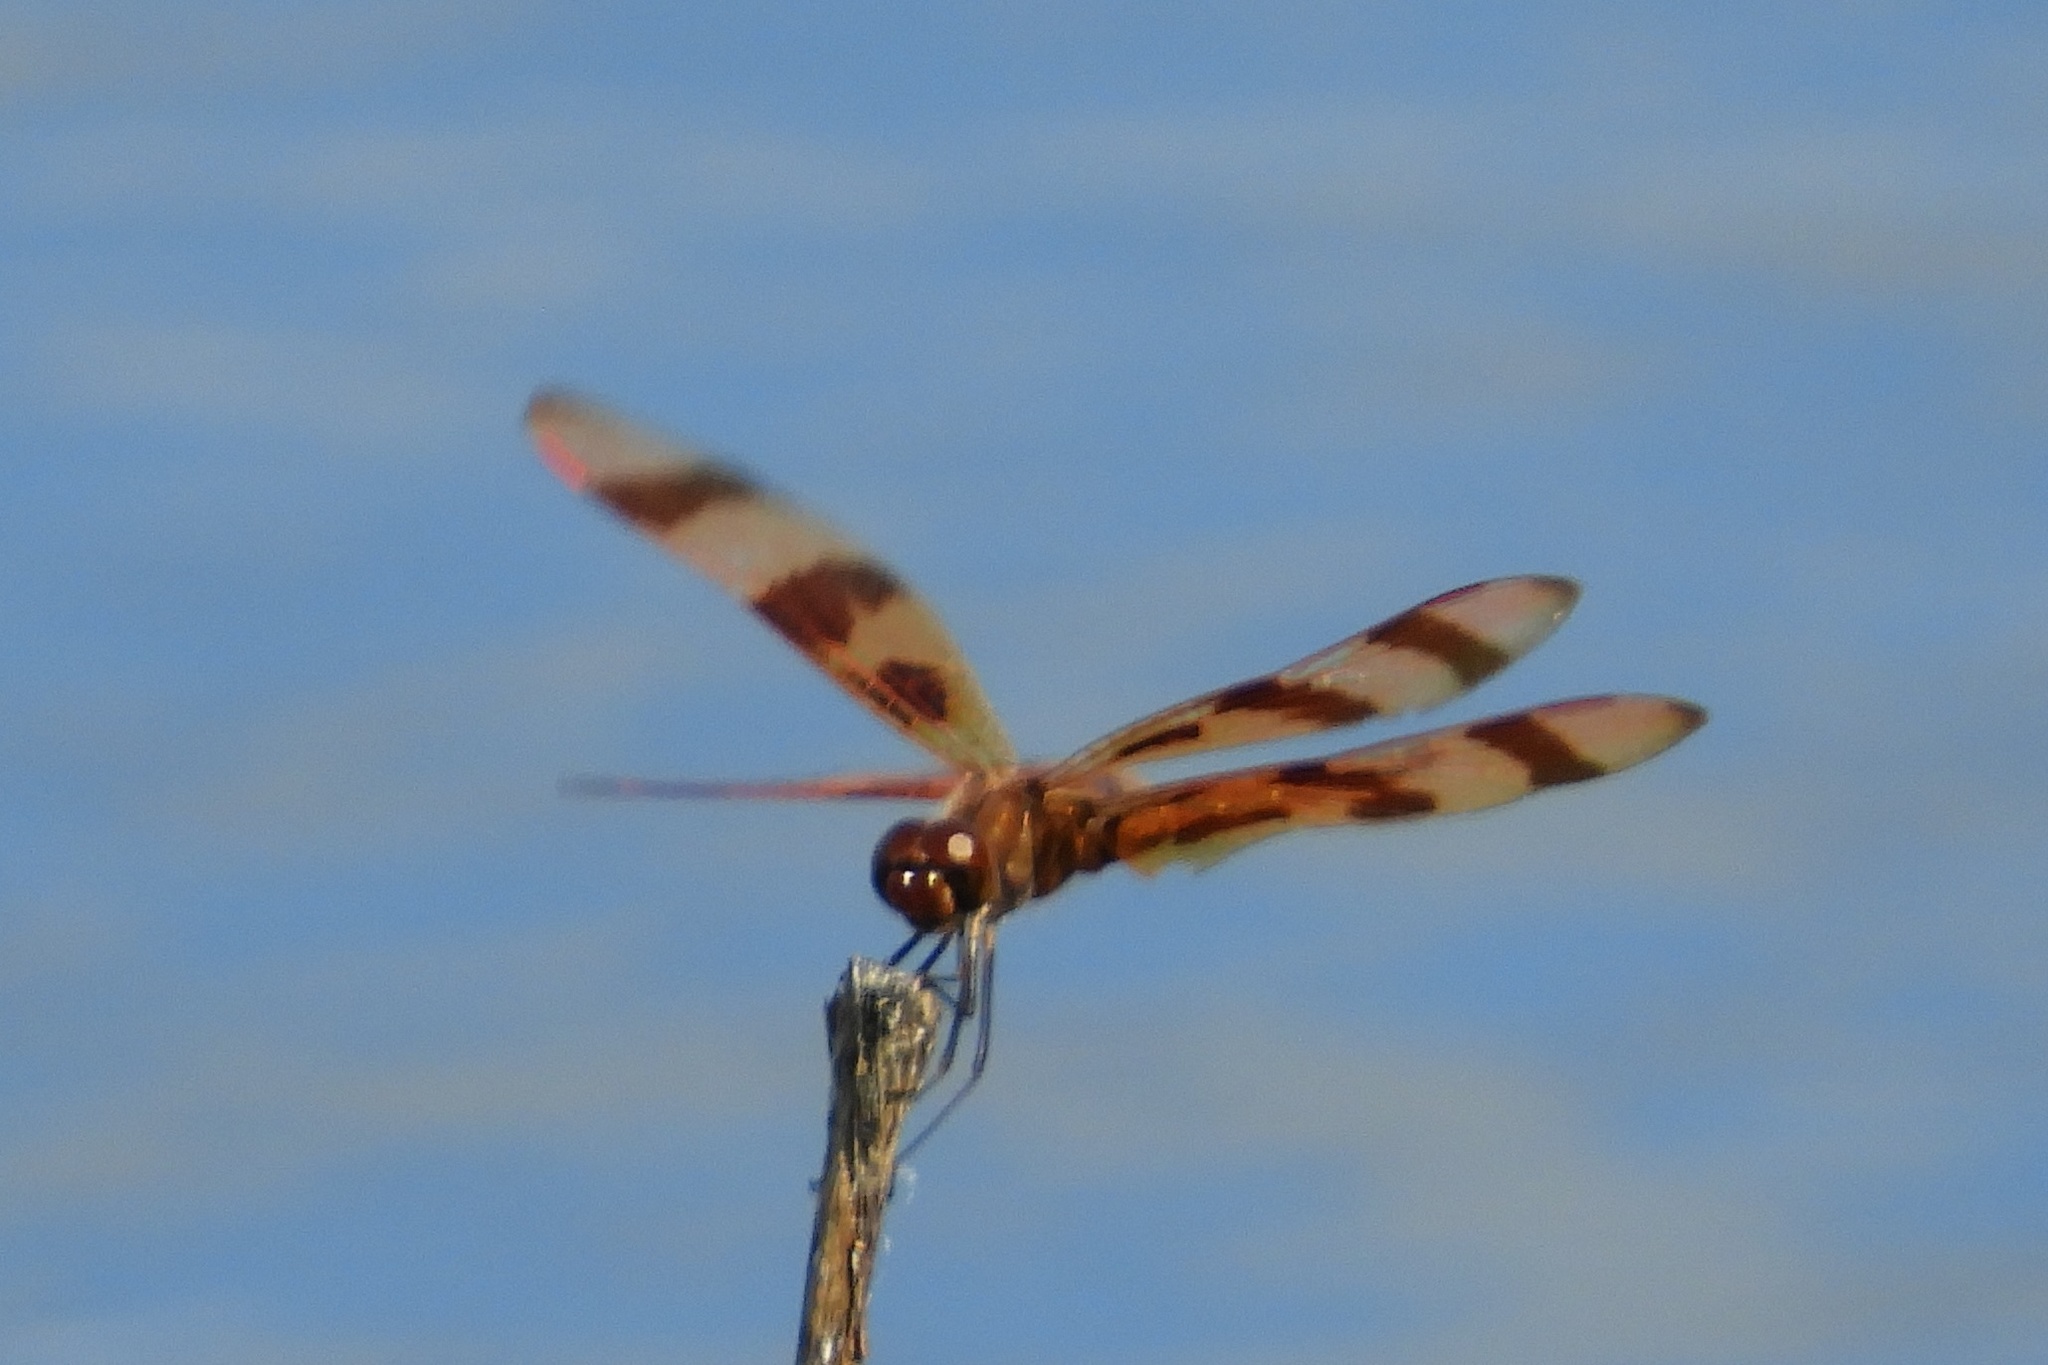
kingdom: Animalia
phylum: Arthropoda
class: Insecta
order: Odonata
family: Libellulidae
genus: Celithemis
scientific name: Celithemis eponina
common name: Halloween pennant
